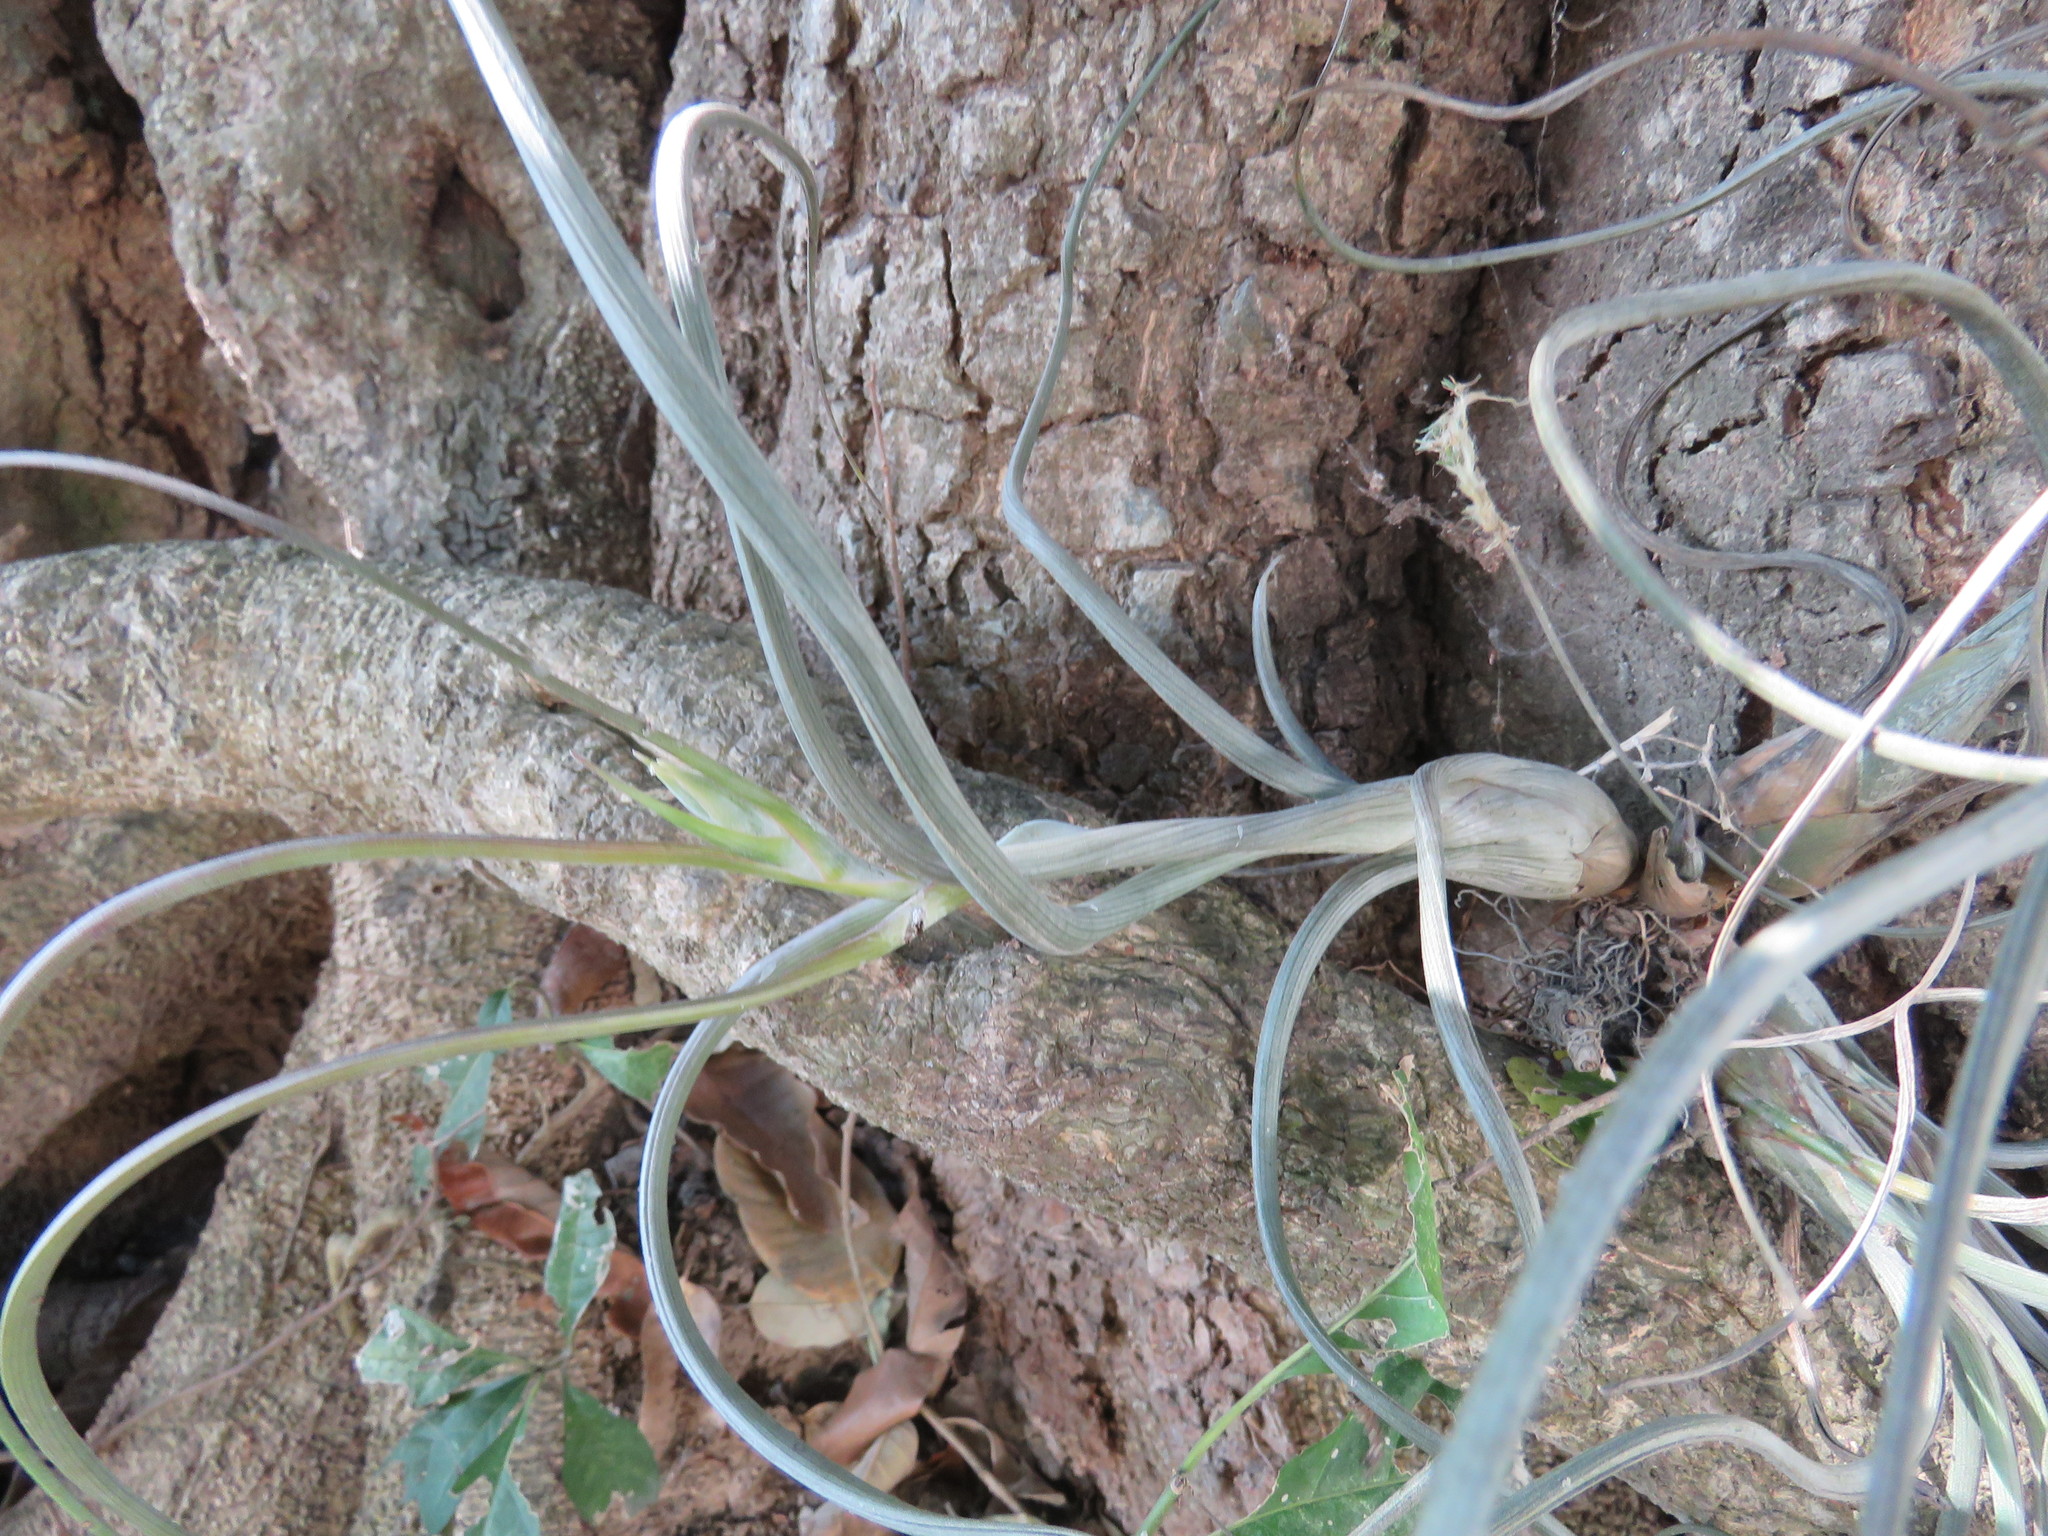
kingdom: Plantae
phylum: Tracheophyta
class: Liliopsida
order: Poales
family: Bromeliaceae
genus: Tillandsia
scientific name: Tillandsia pseudobaileyi
